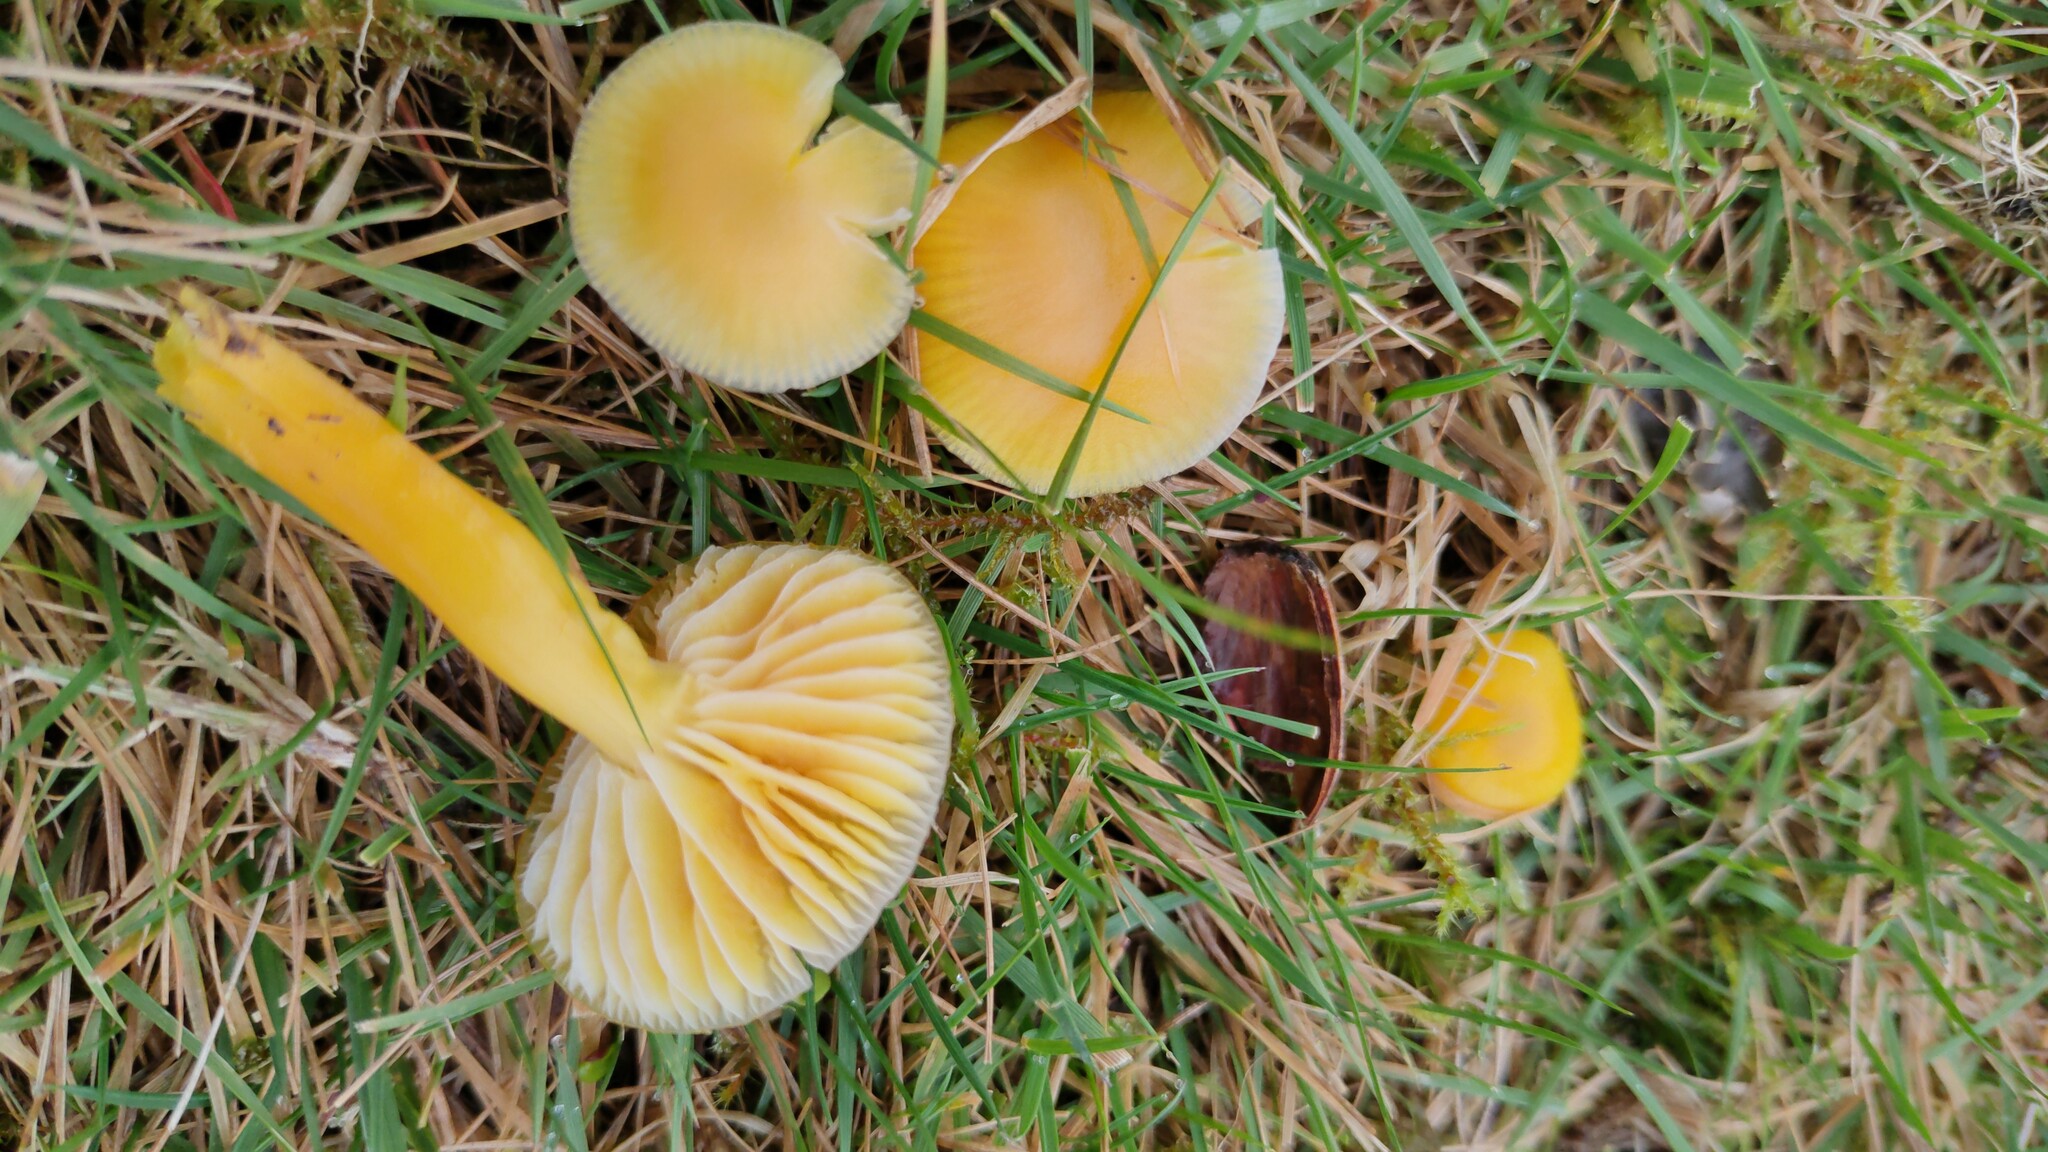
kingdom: Fungi
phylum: Basidiomycota
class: Agaricomycetes
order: Agaricales
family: Hygrophoraceae
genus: Hygrocybe
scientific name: Hygrocybe ceracea
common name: Butter waxcap
